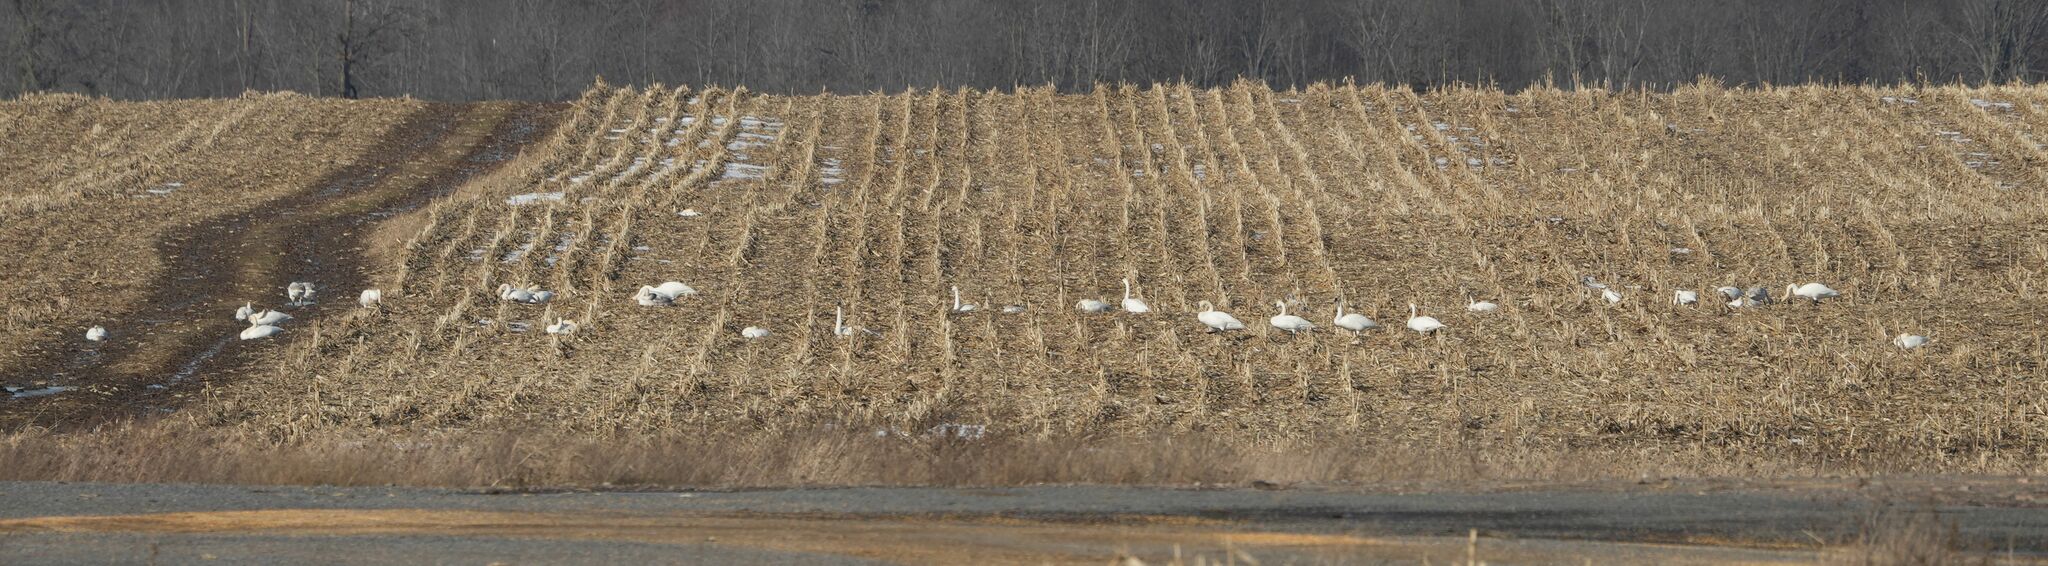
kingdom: Animalia
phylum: Chordata
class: Aves
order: Anseriformes
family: Anatidae
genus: Cygnus
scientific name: Cygnus buccinator
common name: Trumpeter swan
